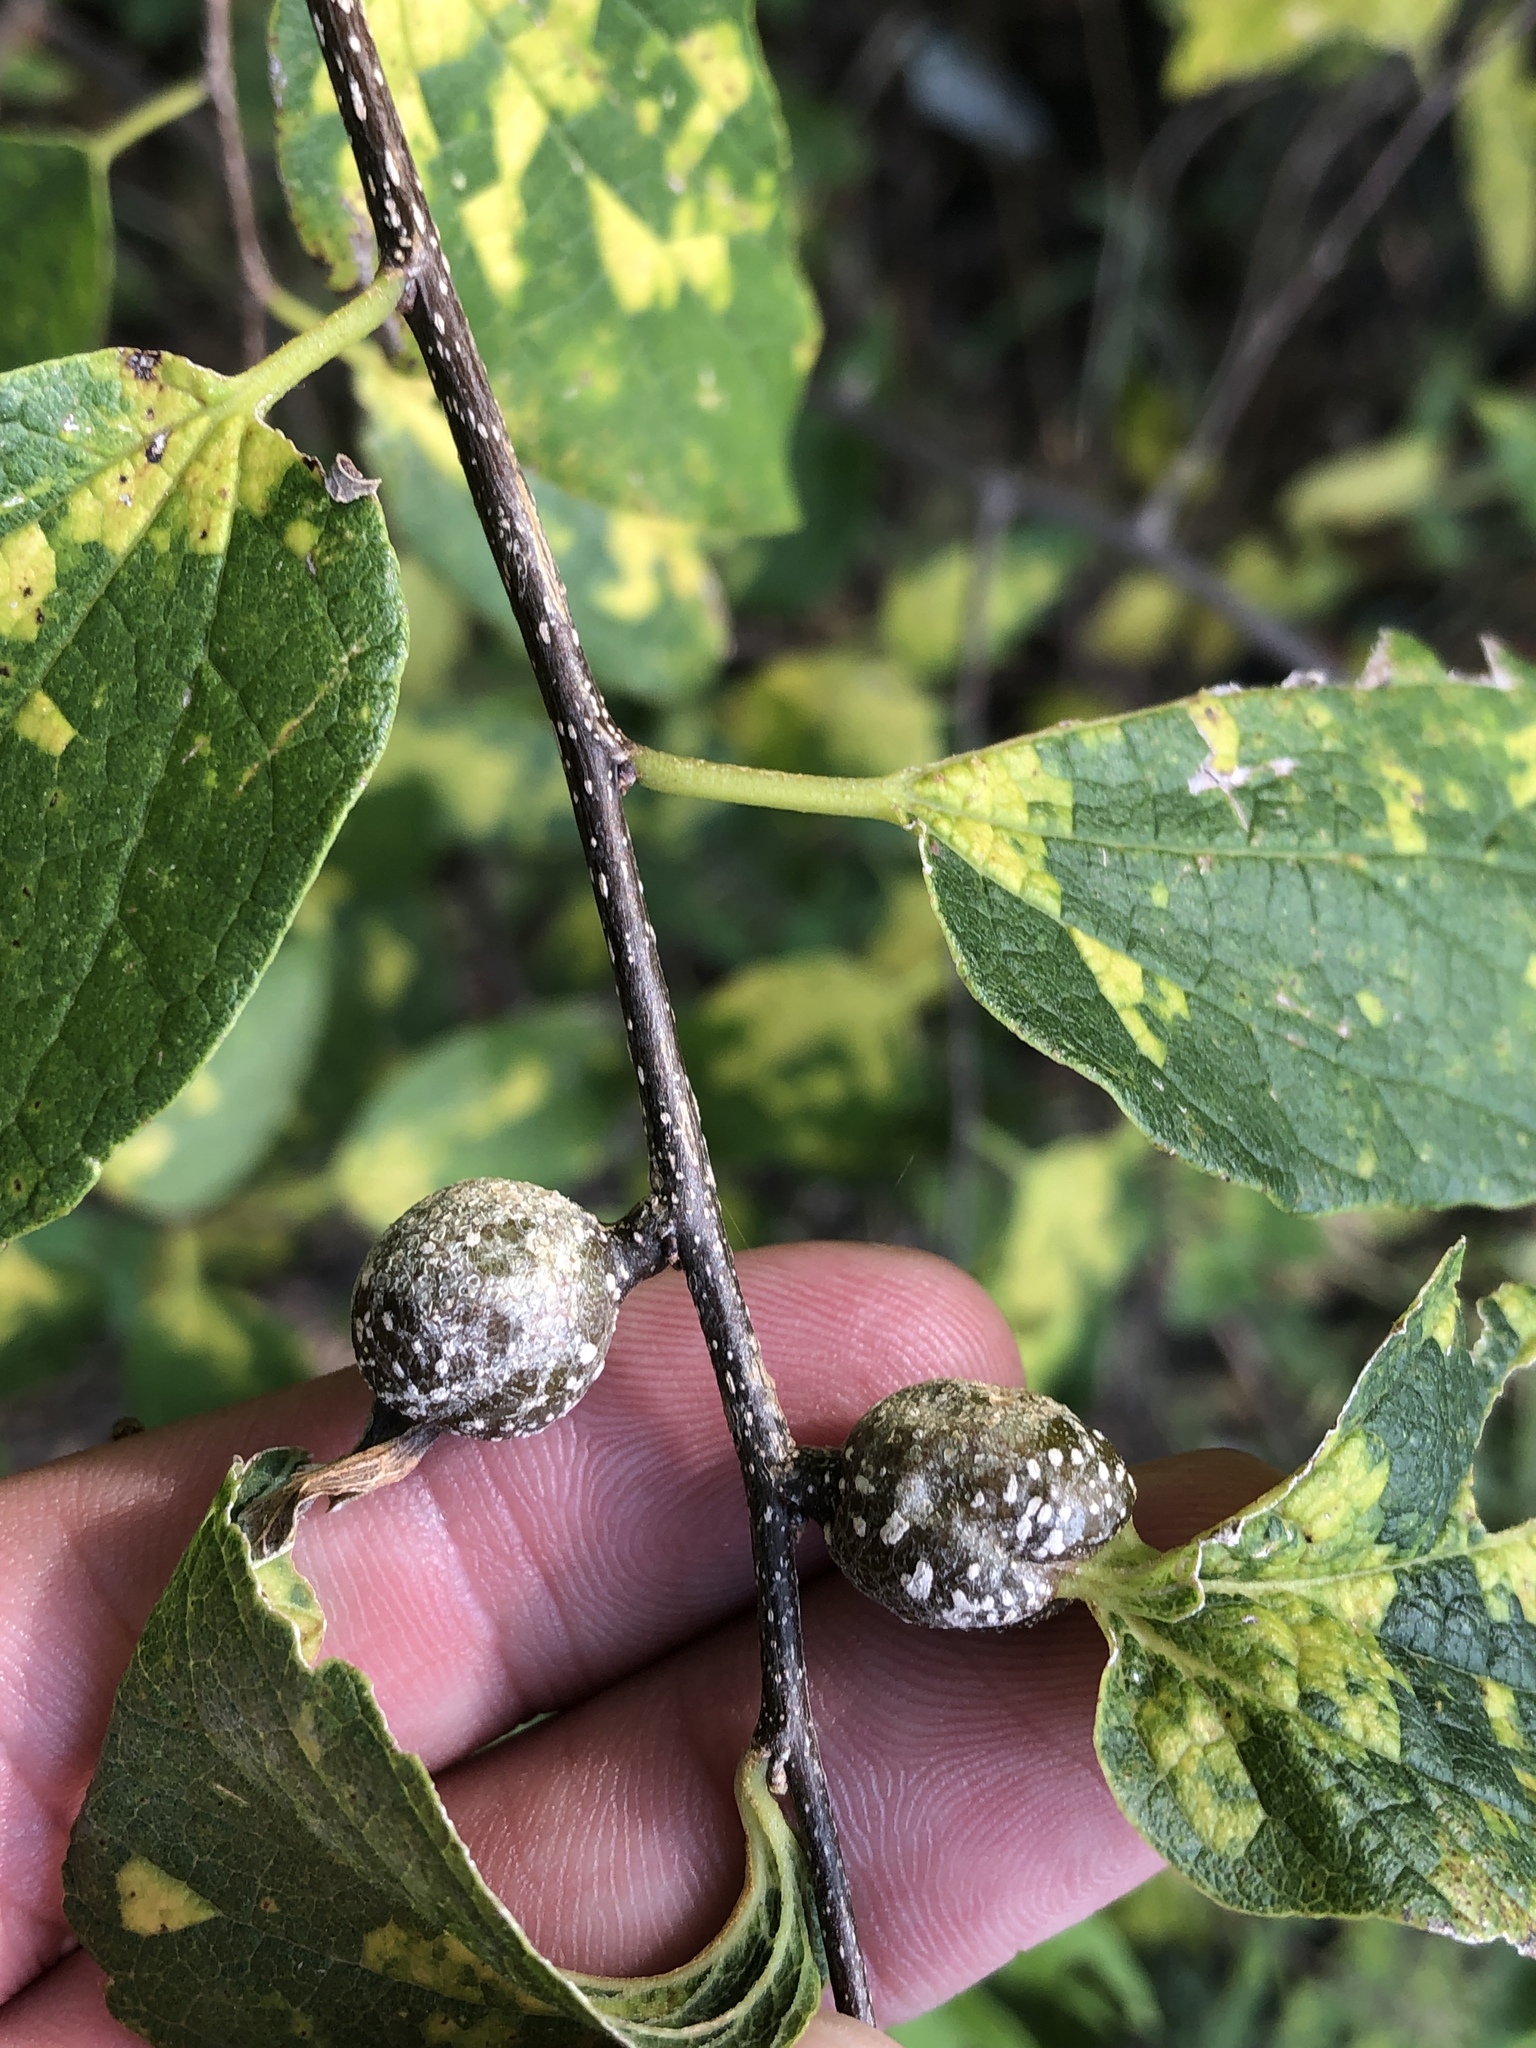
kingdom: Animalia
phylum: Arthropoda
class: Insecta
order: Hemiptera
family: Aphalaridae
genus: Pachypsylla
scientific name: Pachypsylla venusta
